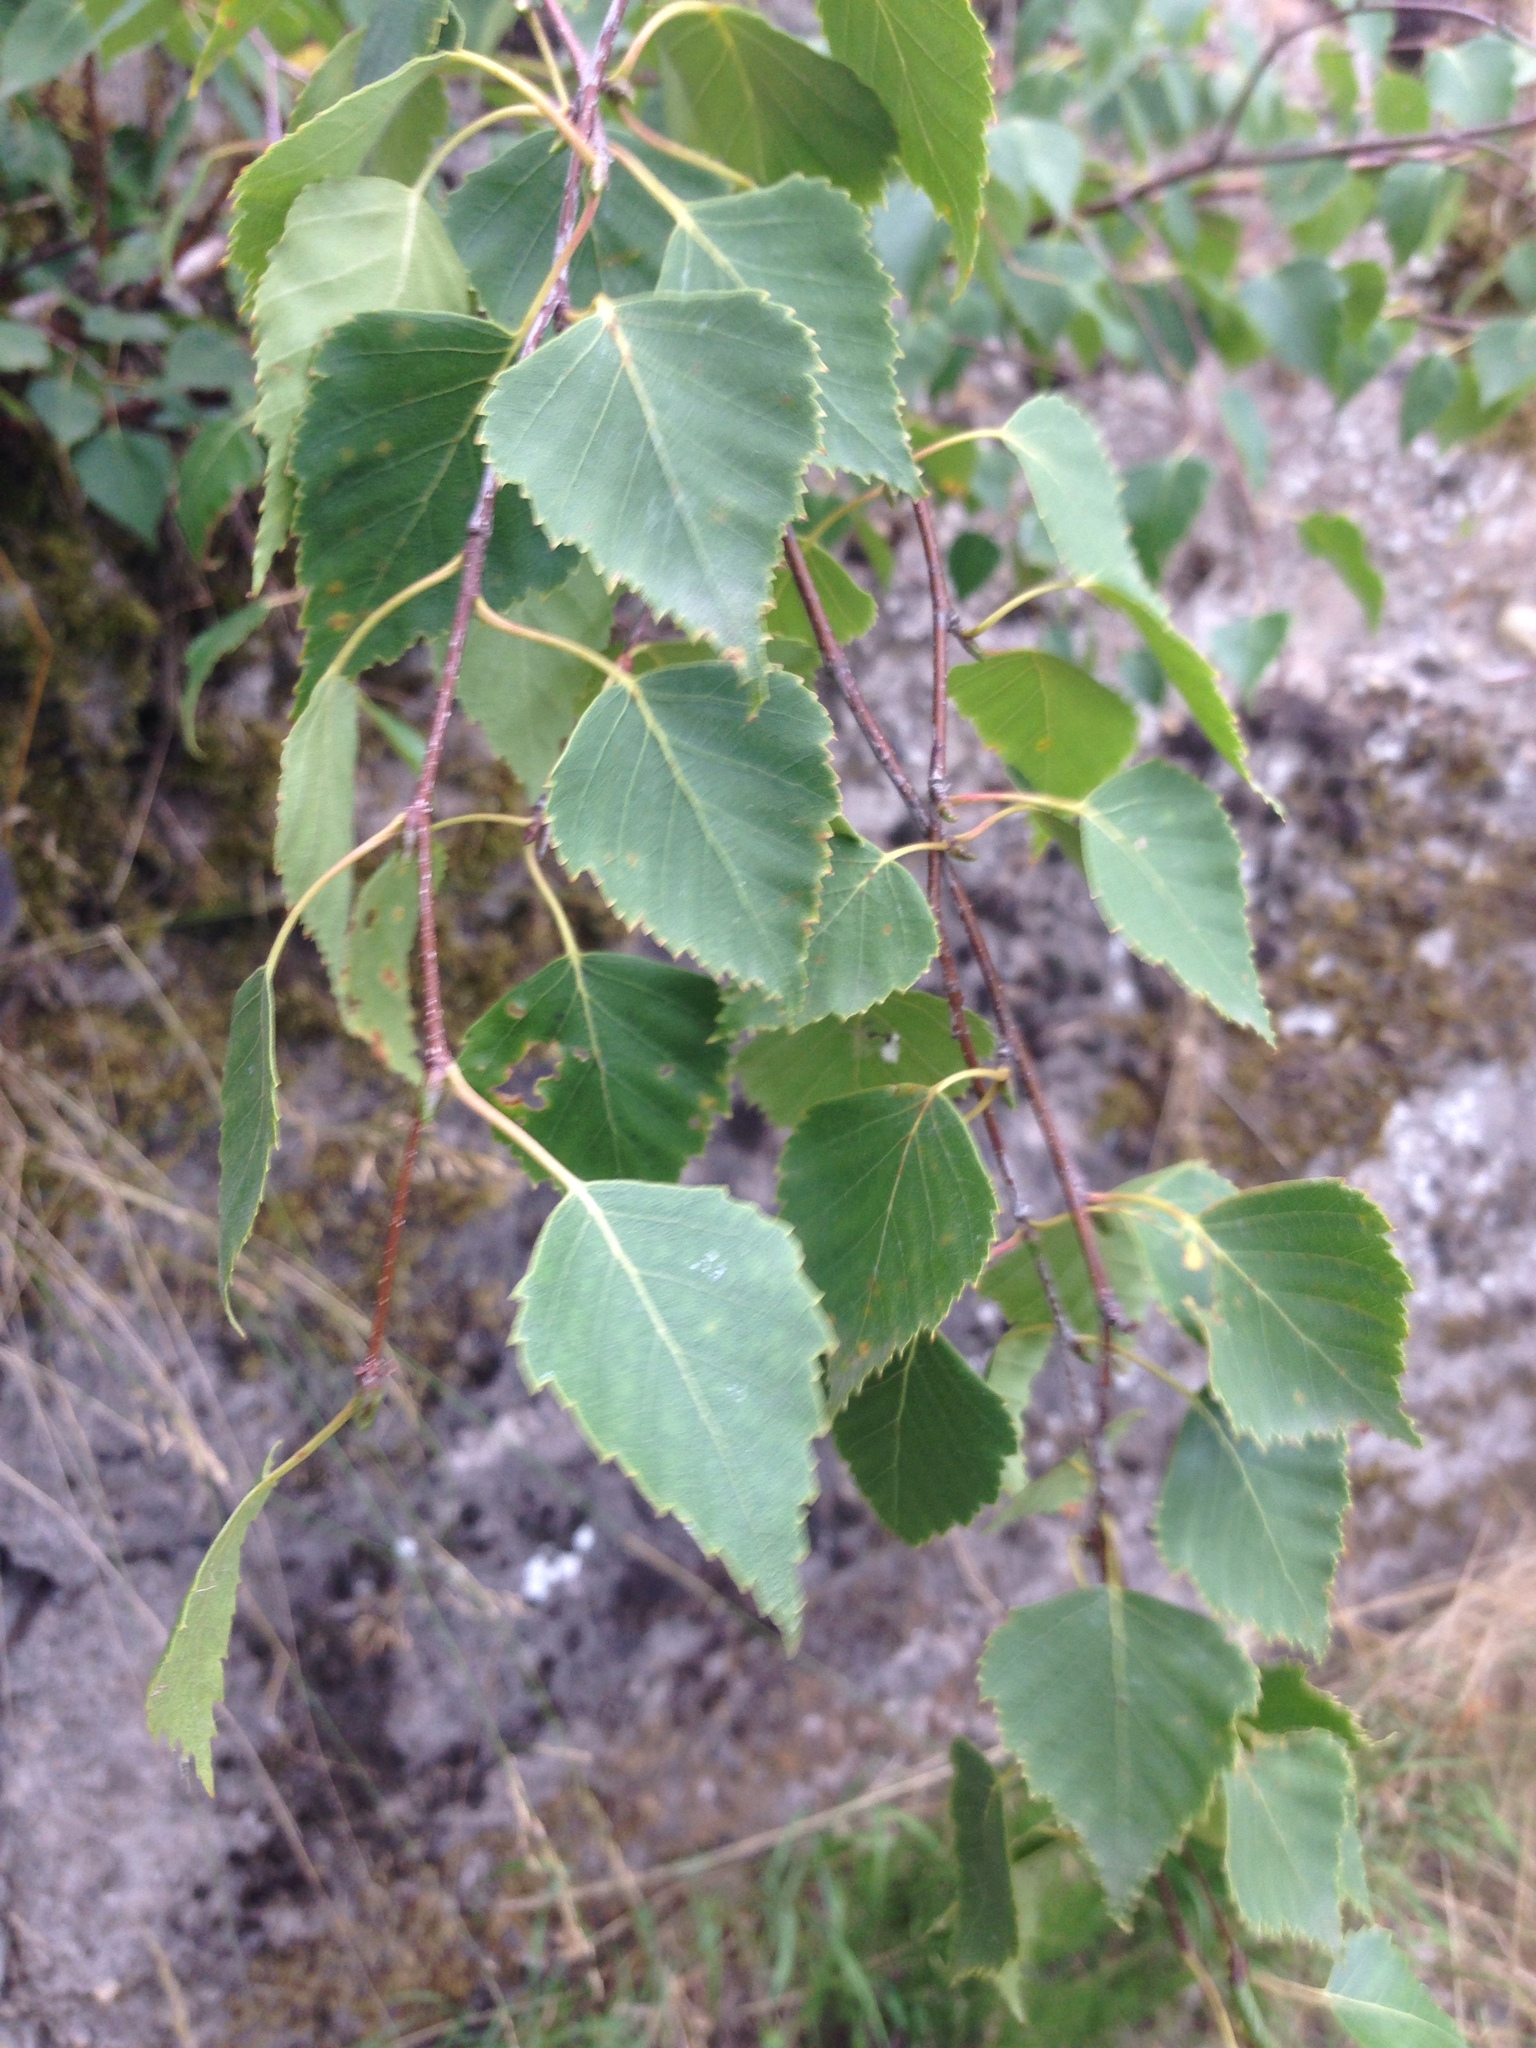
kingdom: Plantae
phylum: Tracheophyta
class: Magnoliopsida
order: Fagales
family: Betulaceae
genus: Betula
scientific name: Betula pendula
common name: Silver birch
